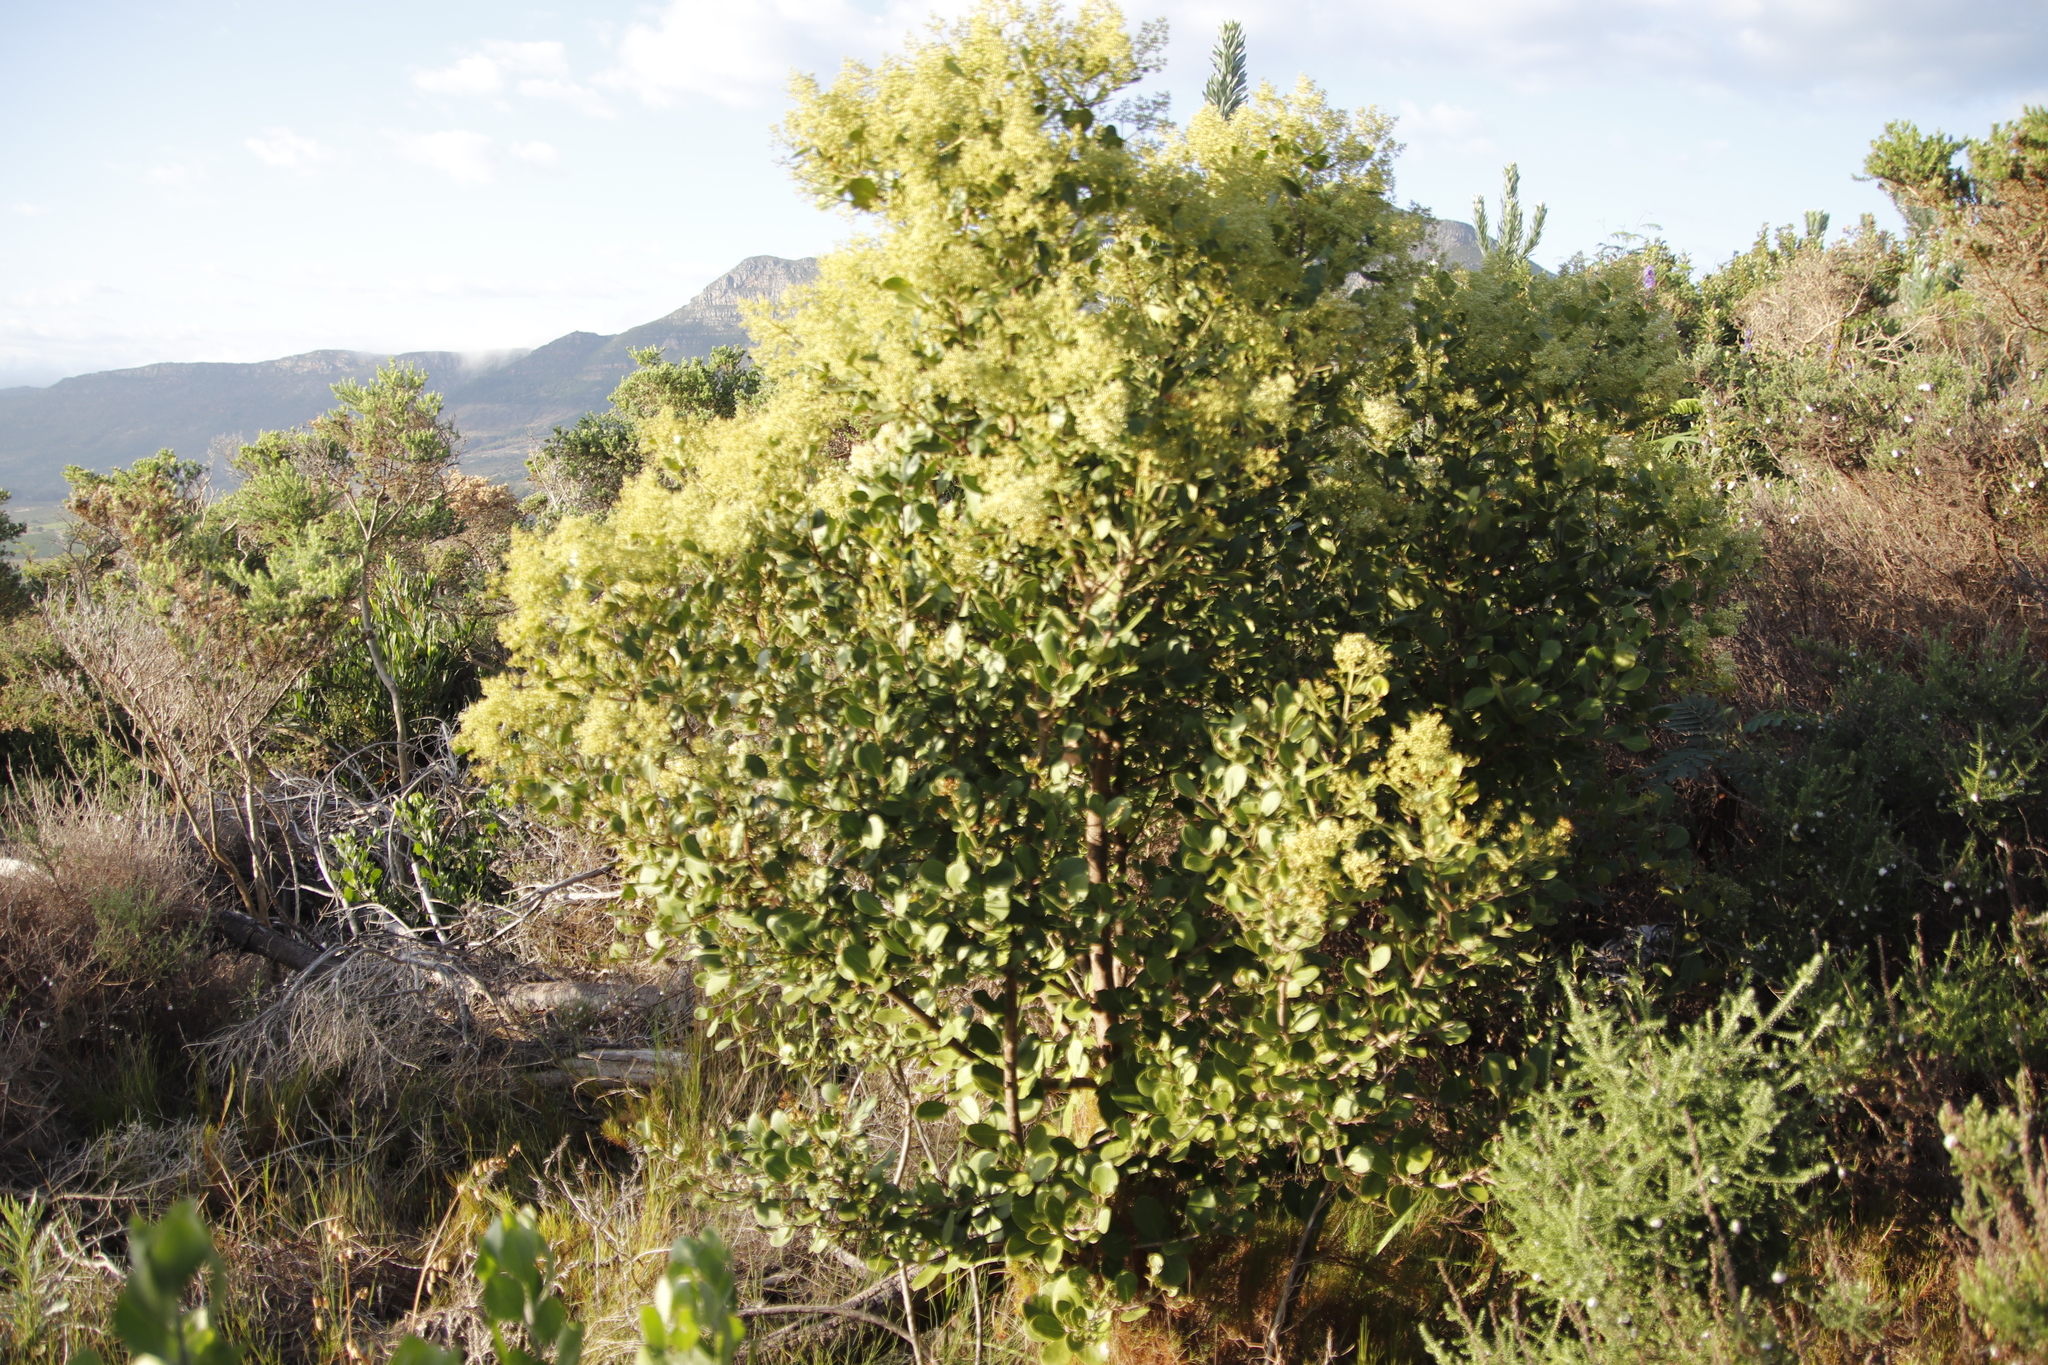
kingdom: Plantae
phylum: Tracheophyta
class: Magnoliopsida
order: Lamiales
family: Oleaceae
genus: Olea
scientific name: Olea capensis
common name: Black ironwood
